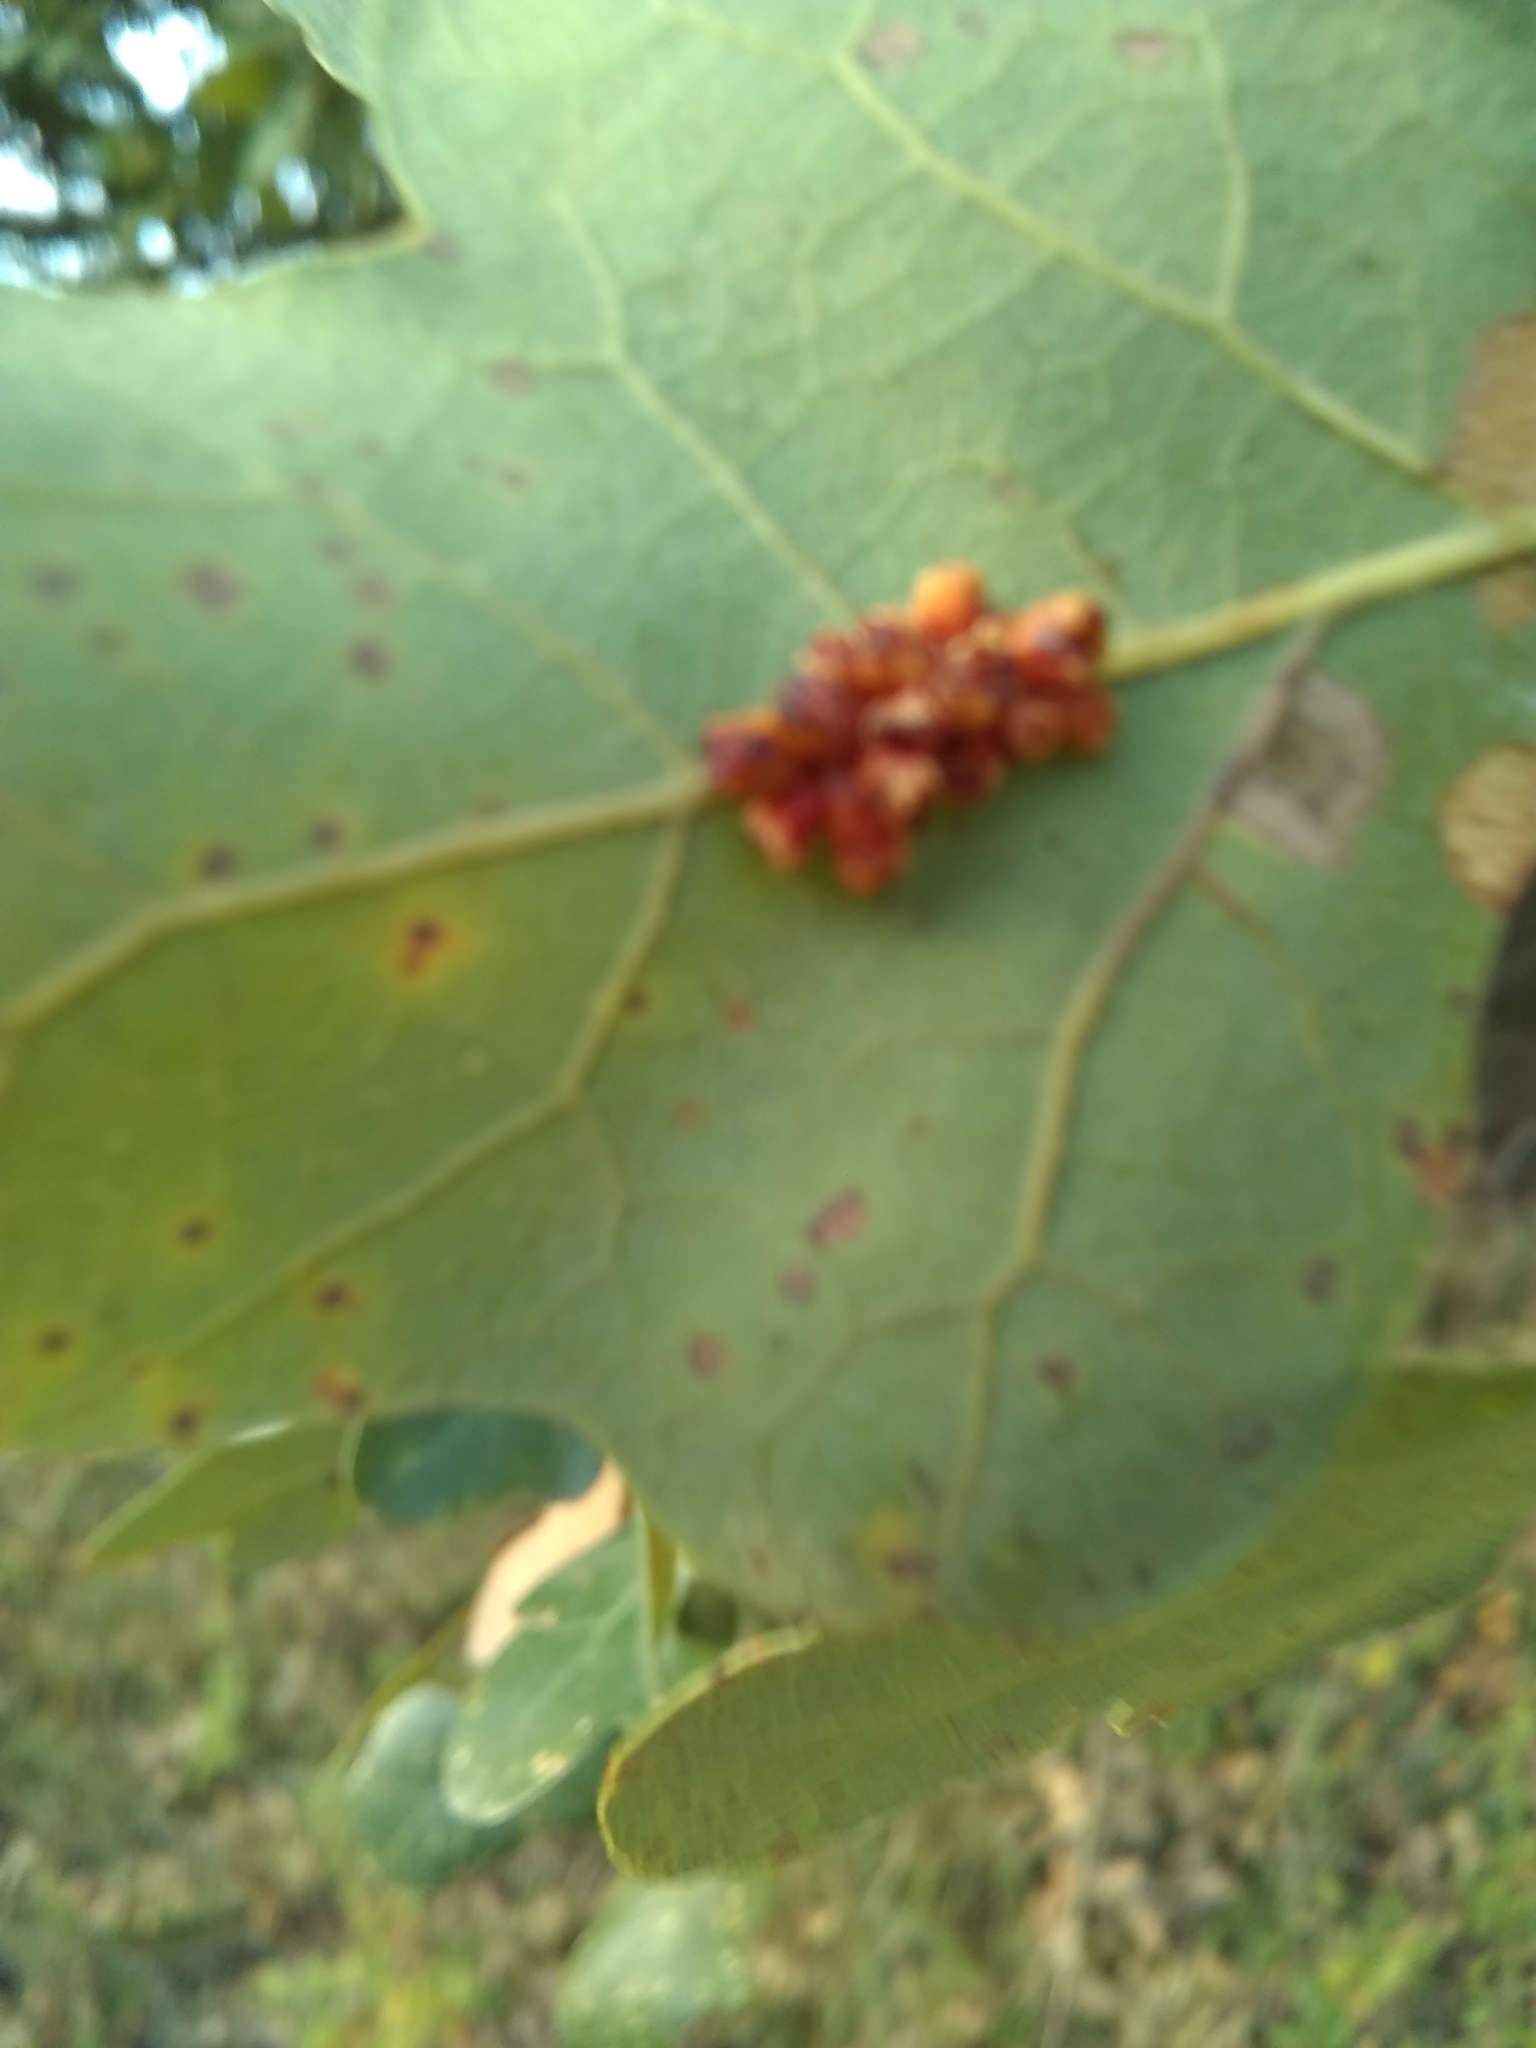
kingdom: Animalia
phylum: Arthropoda
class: Insecta
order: Hymenoptera
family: Cynipidae
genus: Andricus
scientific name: Andricus lustrans
